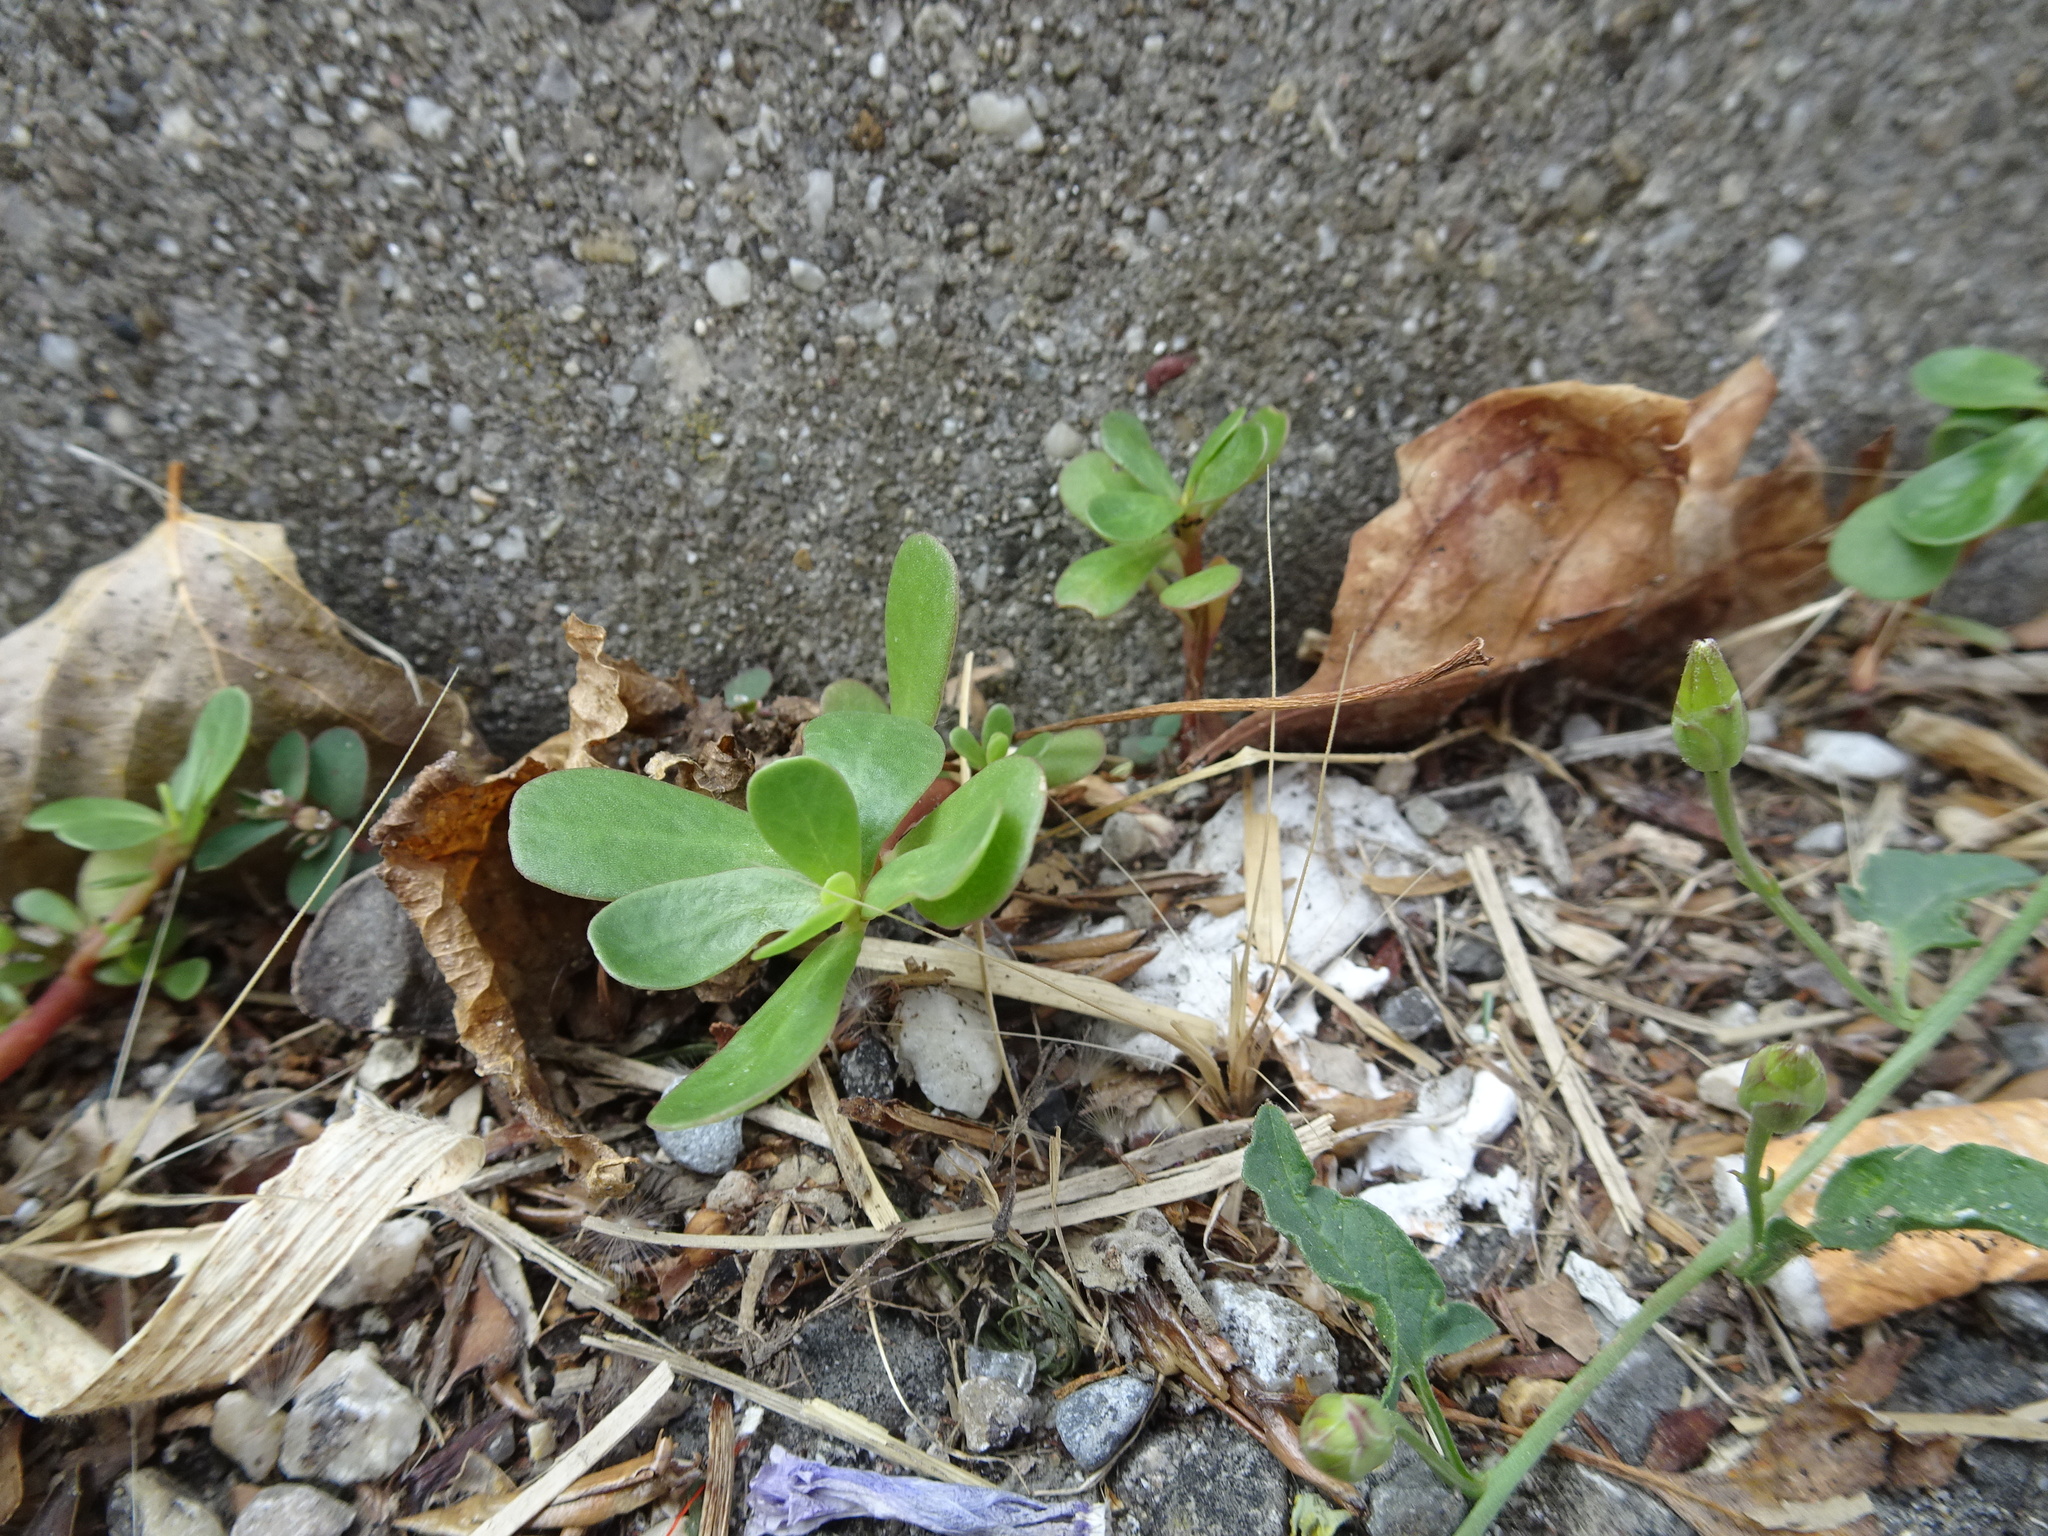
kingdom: Plantae
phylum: Tracheophyta
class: Magnoliopsida
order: Caryophyllales
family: Portulacaceae
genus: Portulaca
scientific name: Portulaca oleracea
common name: Common purslane
